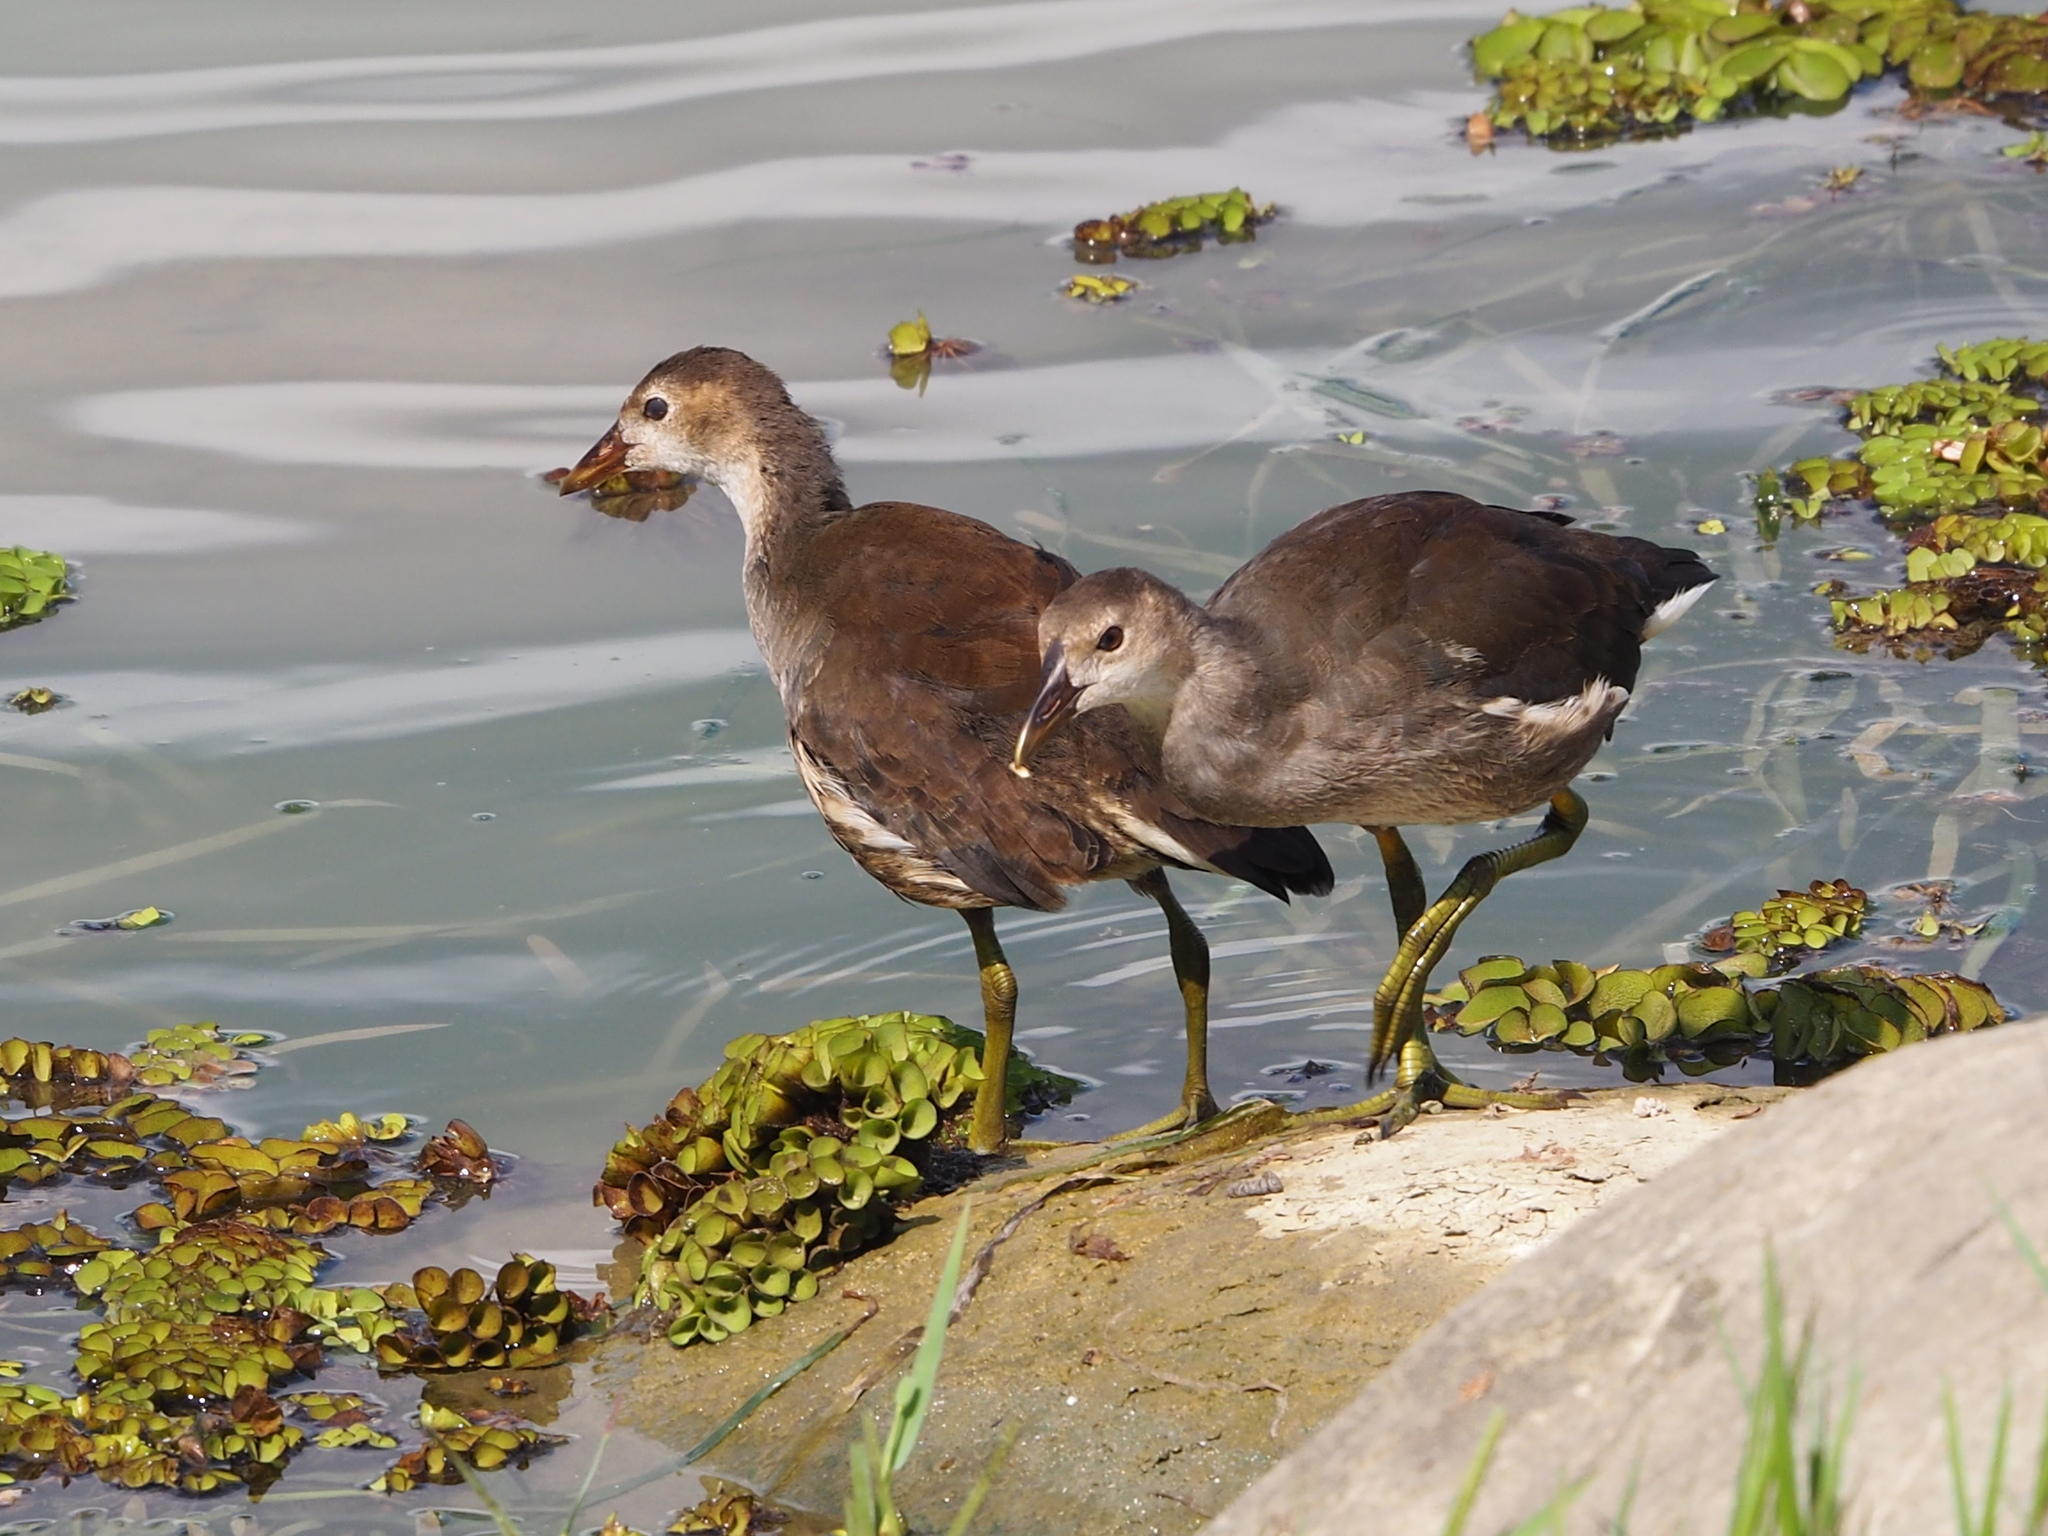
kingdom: Animalia
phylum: Chordata
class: Aves
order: Gruiformes
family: Rallidae
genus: Gallinula
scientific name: Gallinula chloropus
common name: Common moorhen
